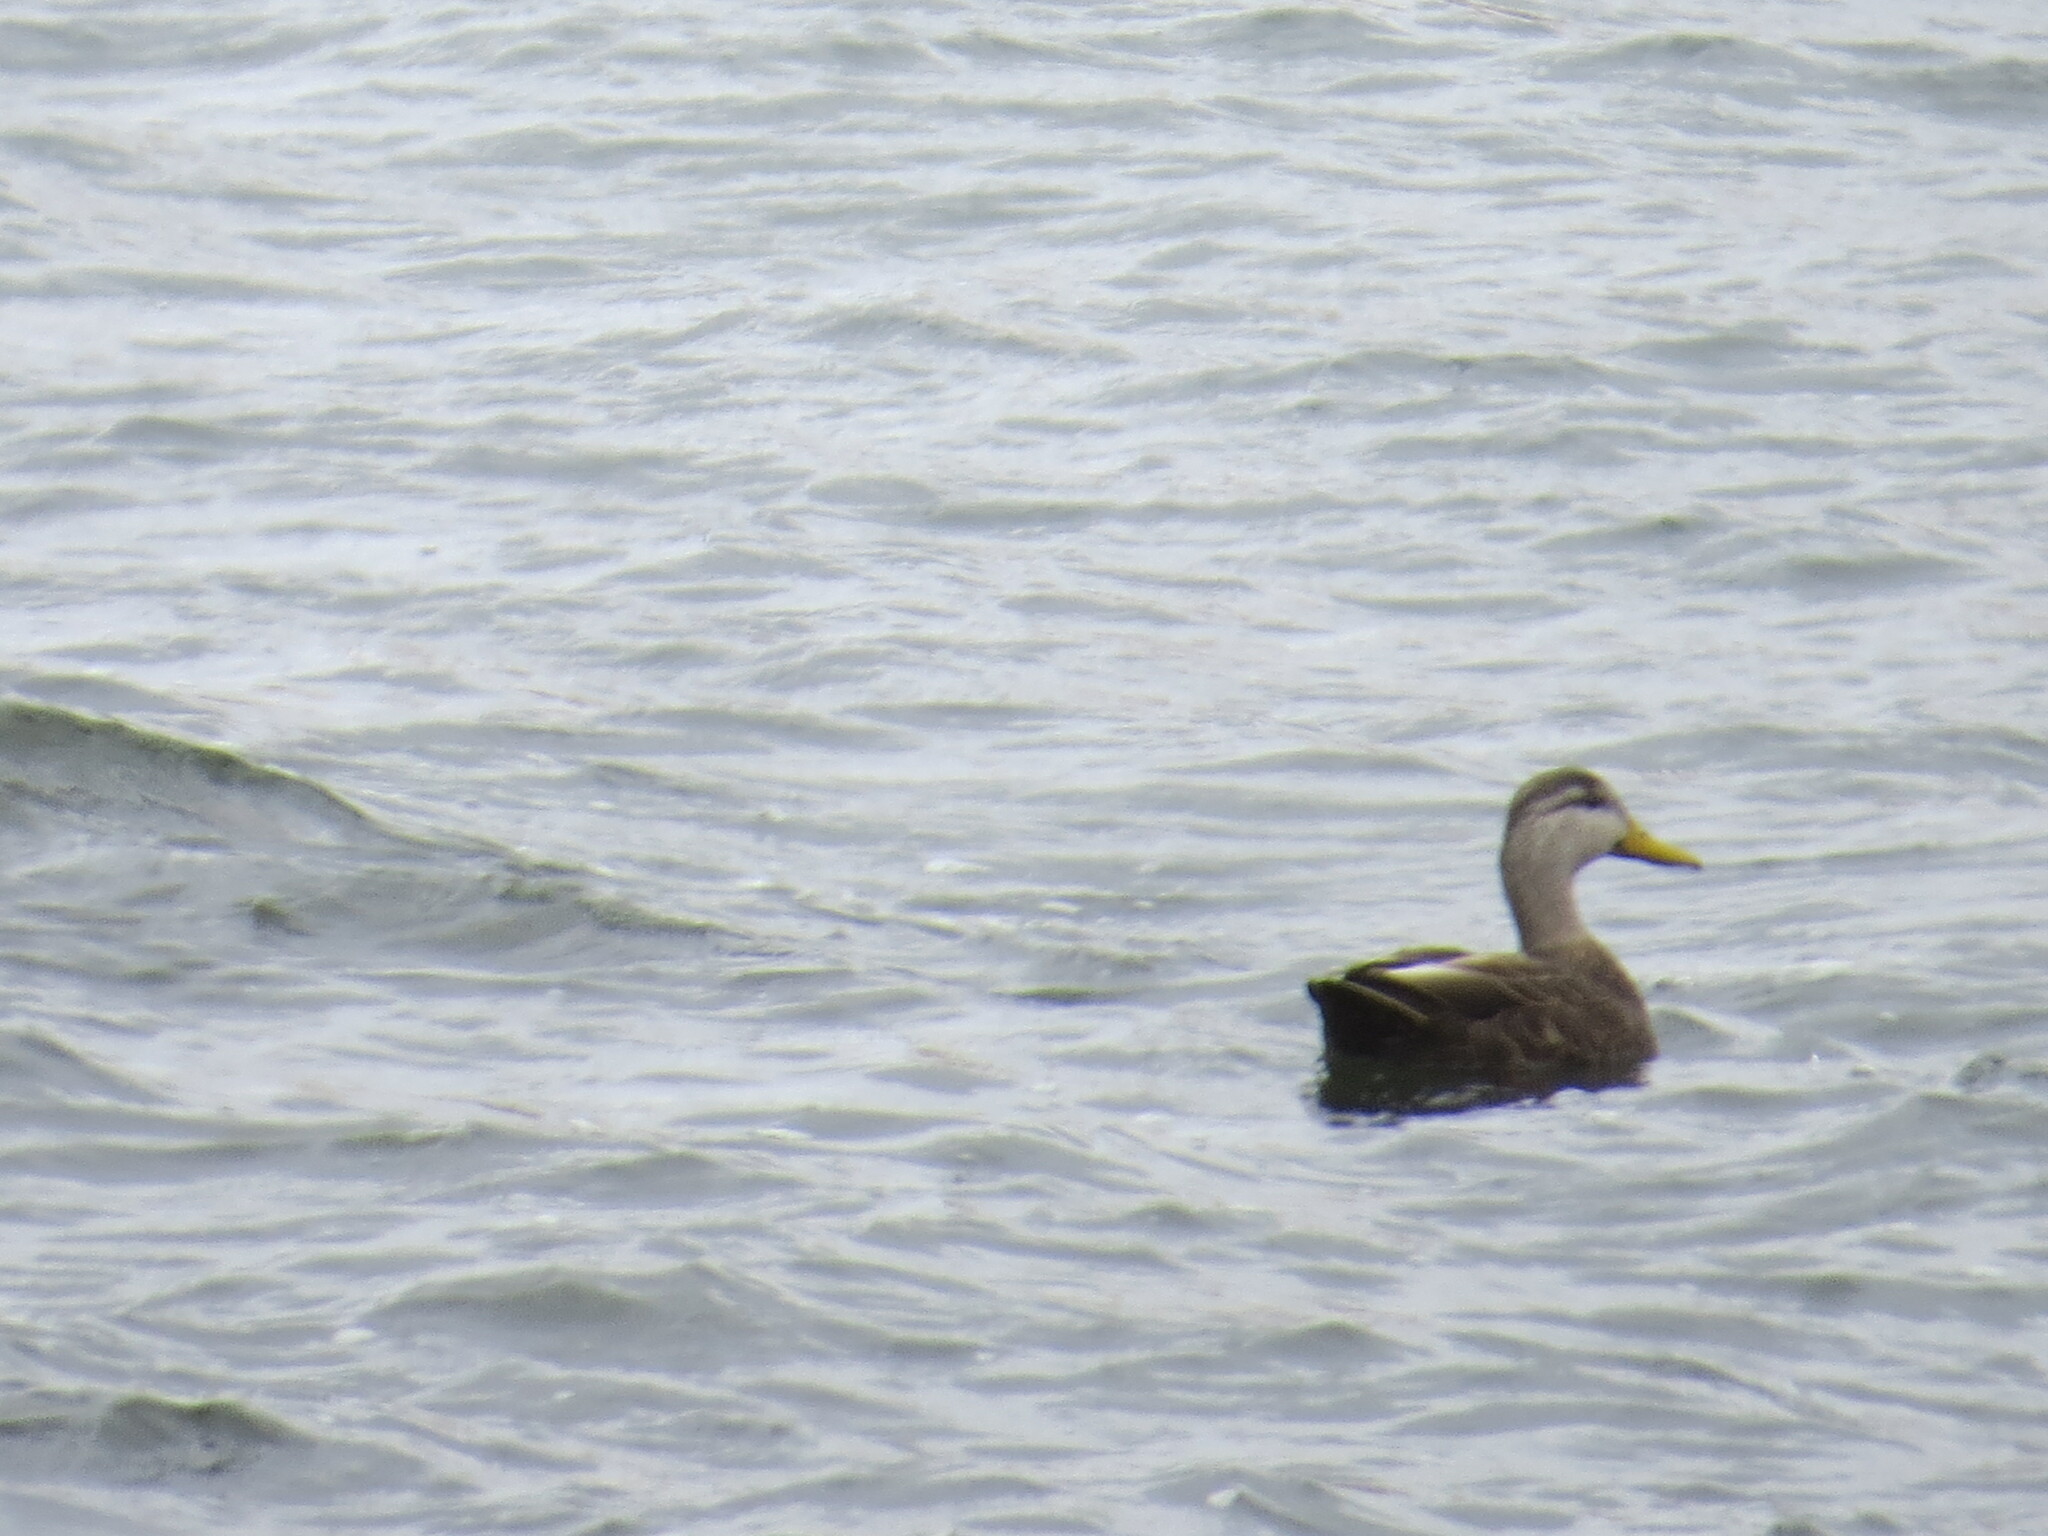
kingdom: Animalia
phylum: Chordata
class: Aves
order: Anseriformes
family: Anatidae
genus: Anas
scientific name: Anas rubripes
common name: American black duck
